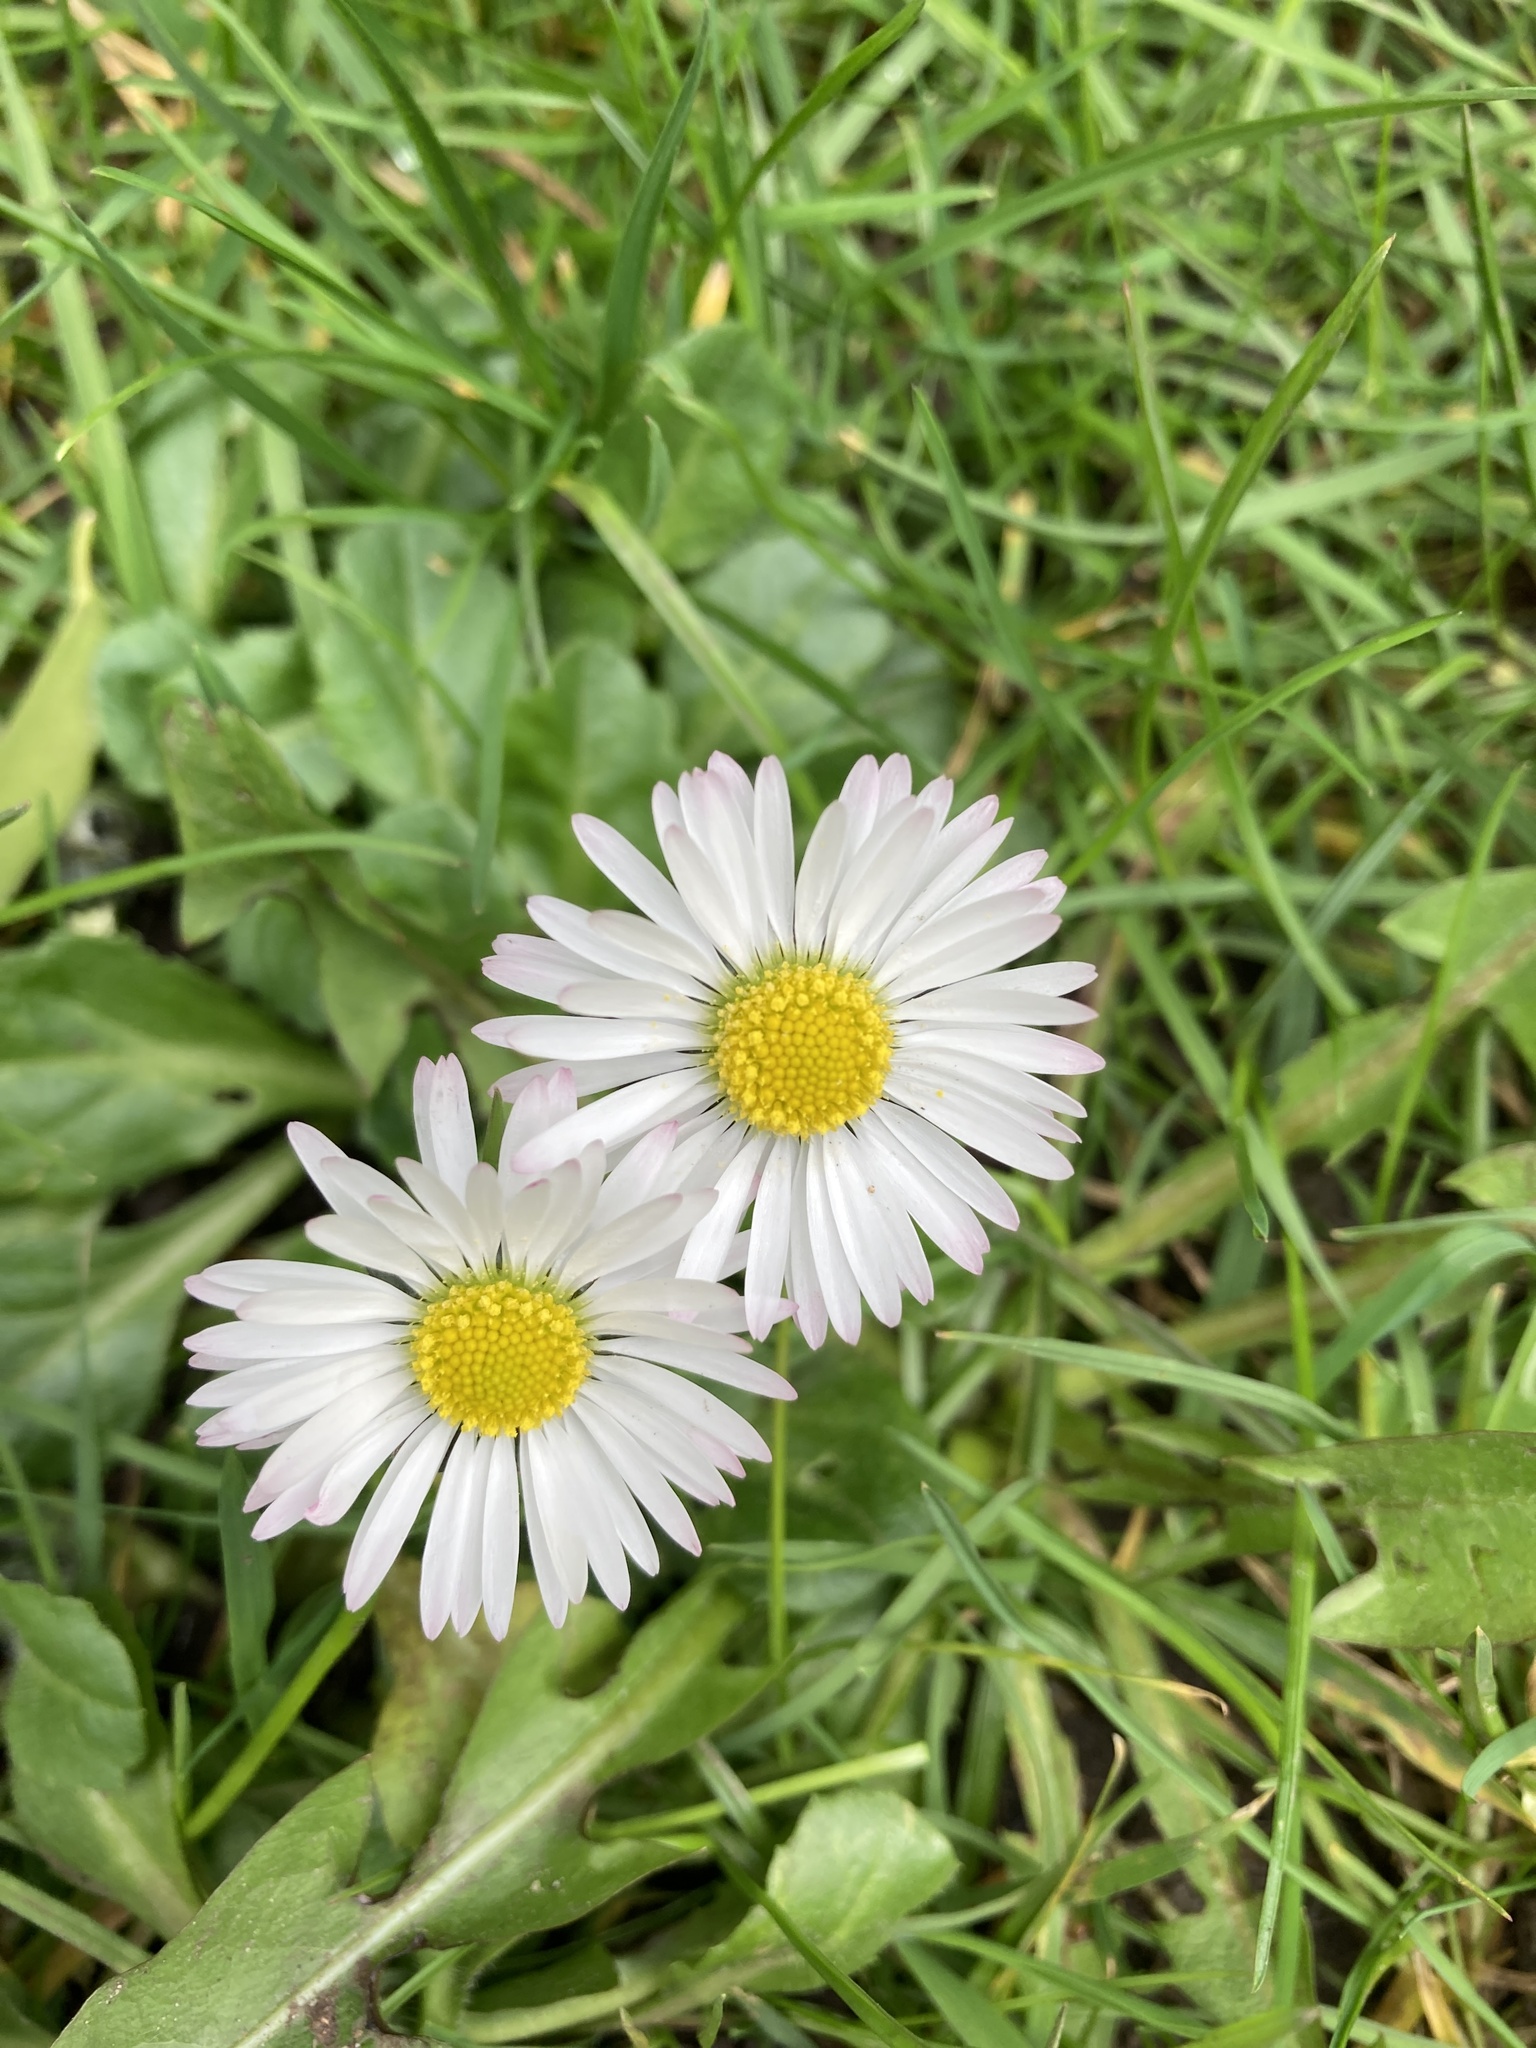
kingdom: Plantae
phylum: Tracheophyta
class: Magnoliopsida
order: Asterales
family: Asteraceae
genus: Bellis
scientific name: Bellis perennis
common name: Lawndaisy
